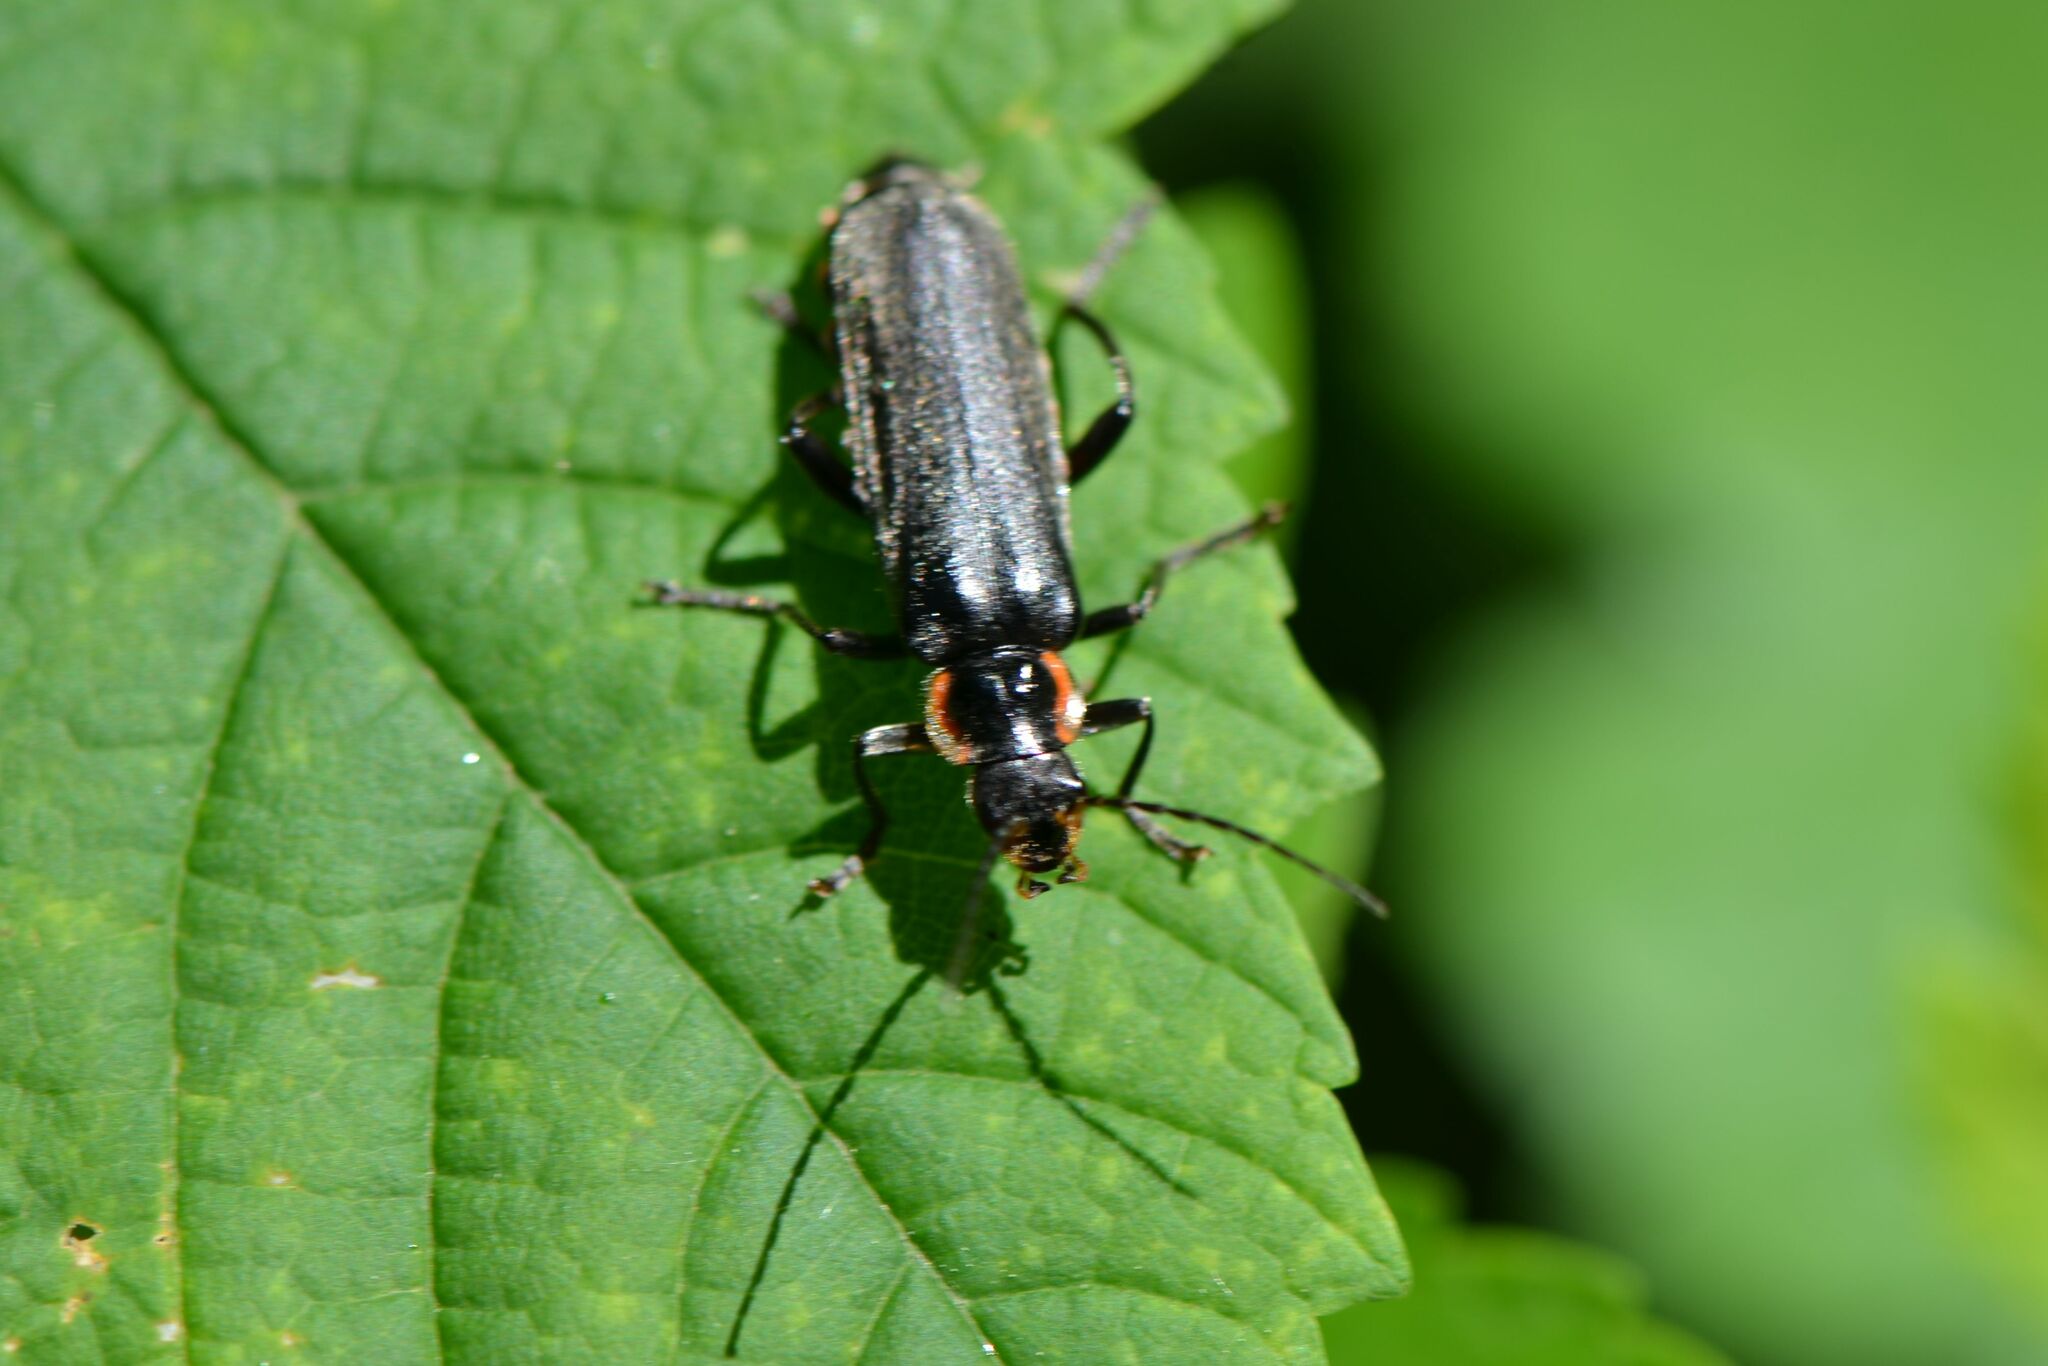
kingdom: Animalia
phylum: Arthropoda
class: Insecta
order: Coleoptera
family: Cantharidae
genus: Cantharis
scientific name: Cantharis paradoxa
